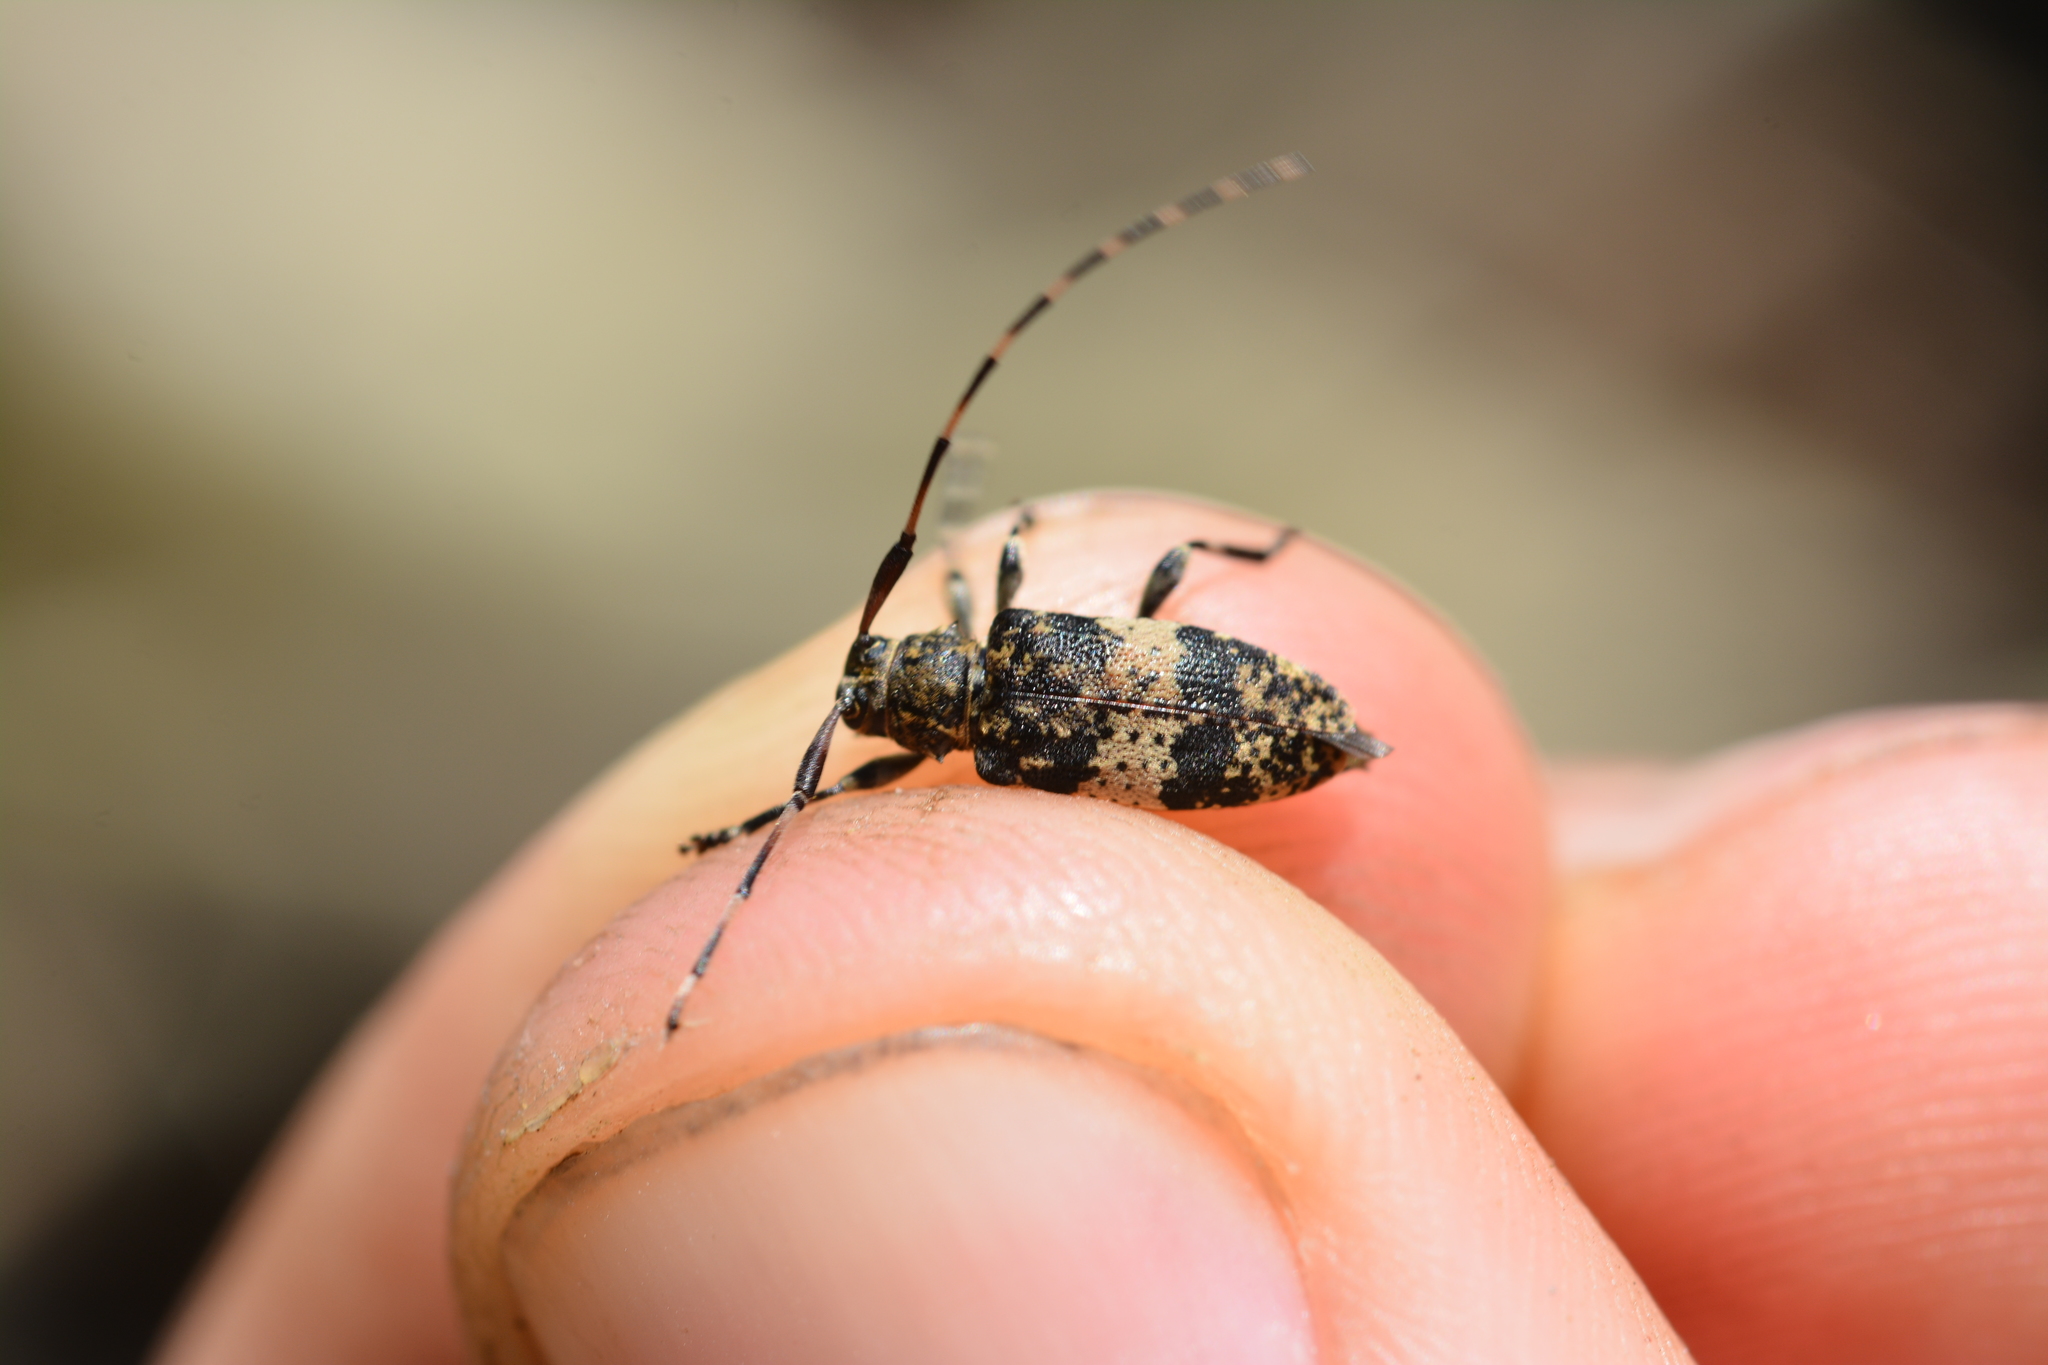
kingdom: Animalia
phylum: Arthropoda
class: Insecta
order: Coleoptera
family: Cerambycidae
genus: Leiopus
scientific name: Leiopus linnei
